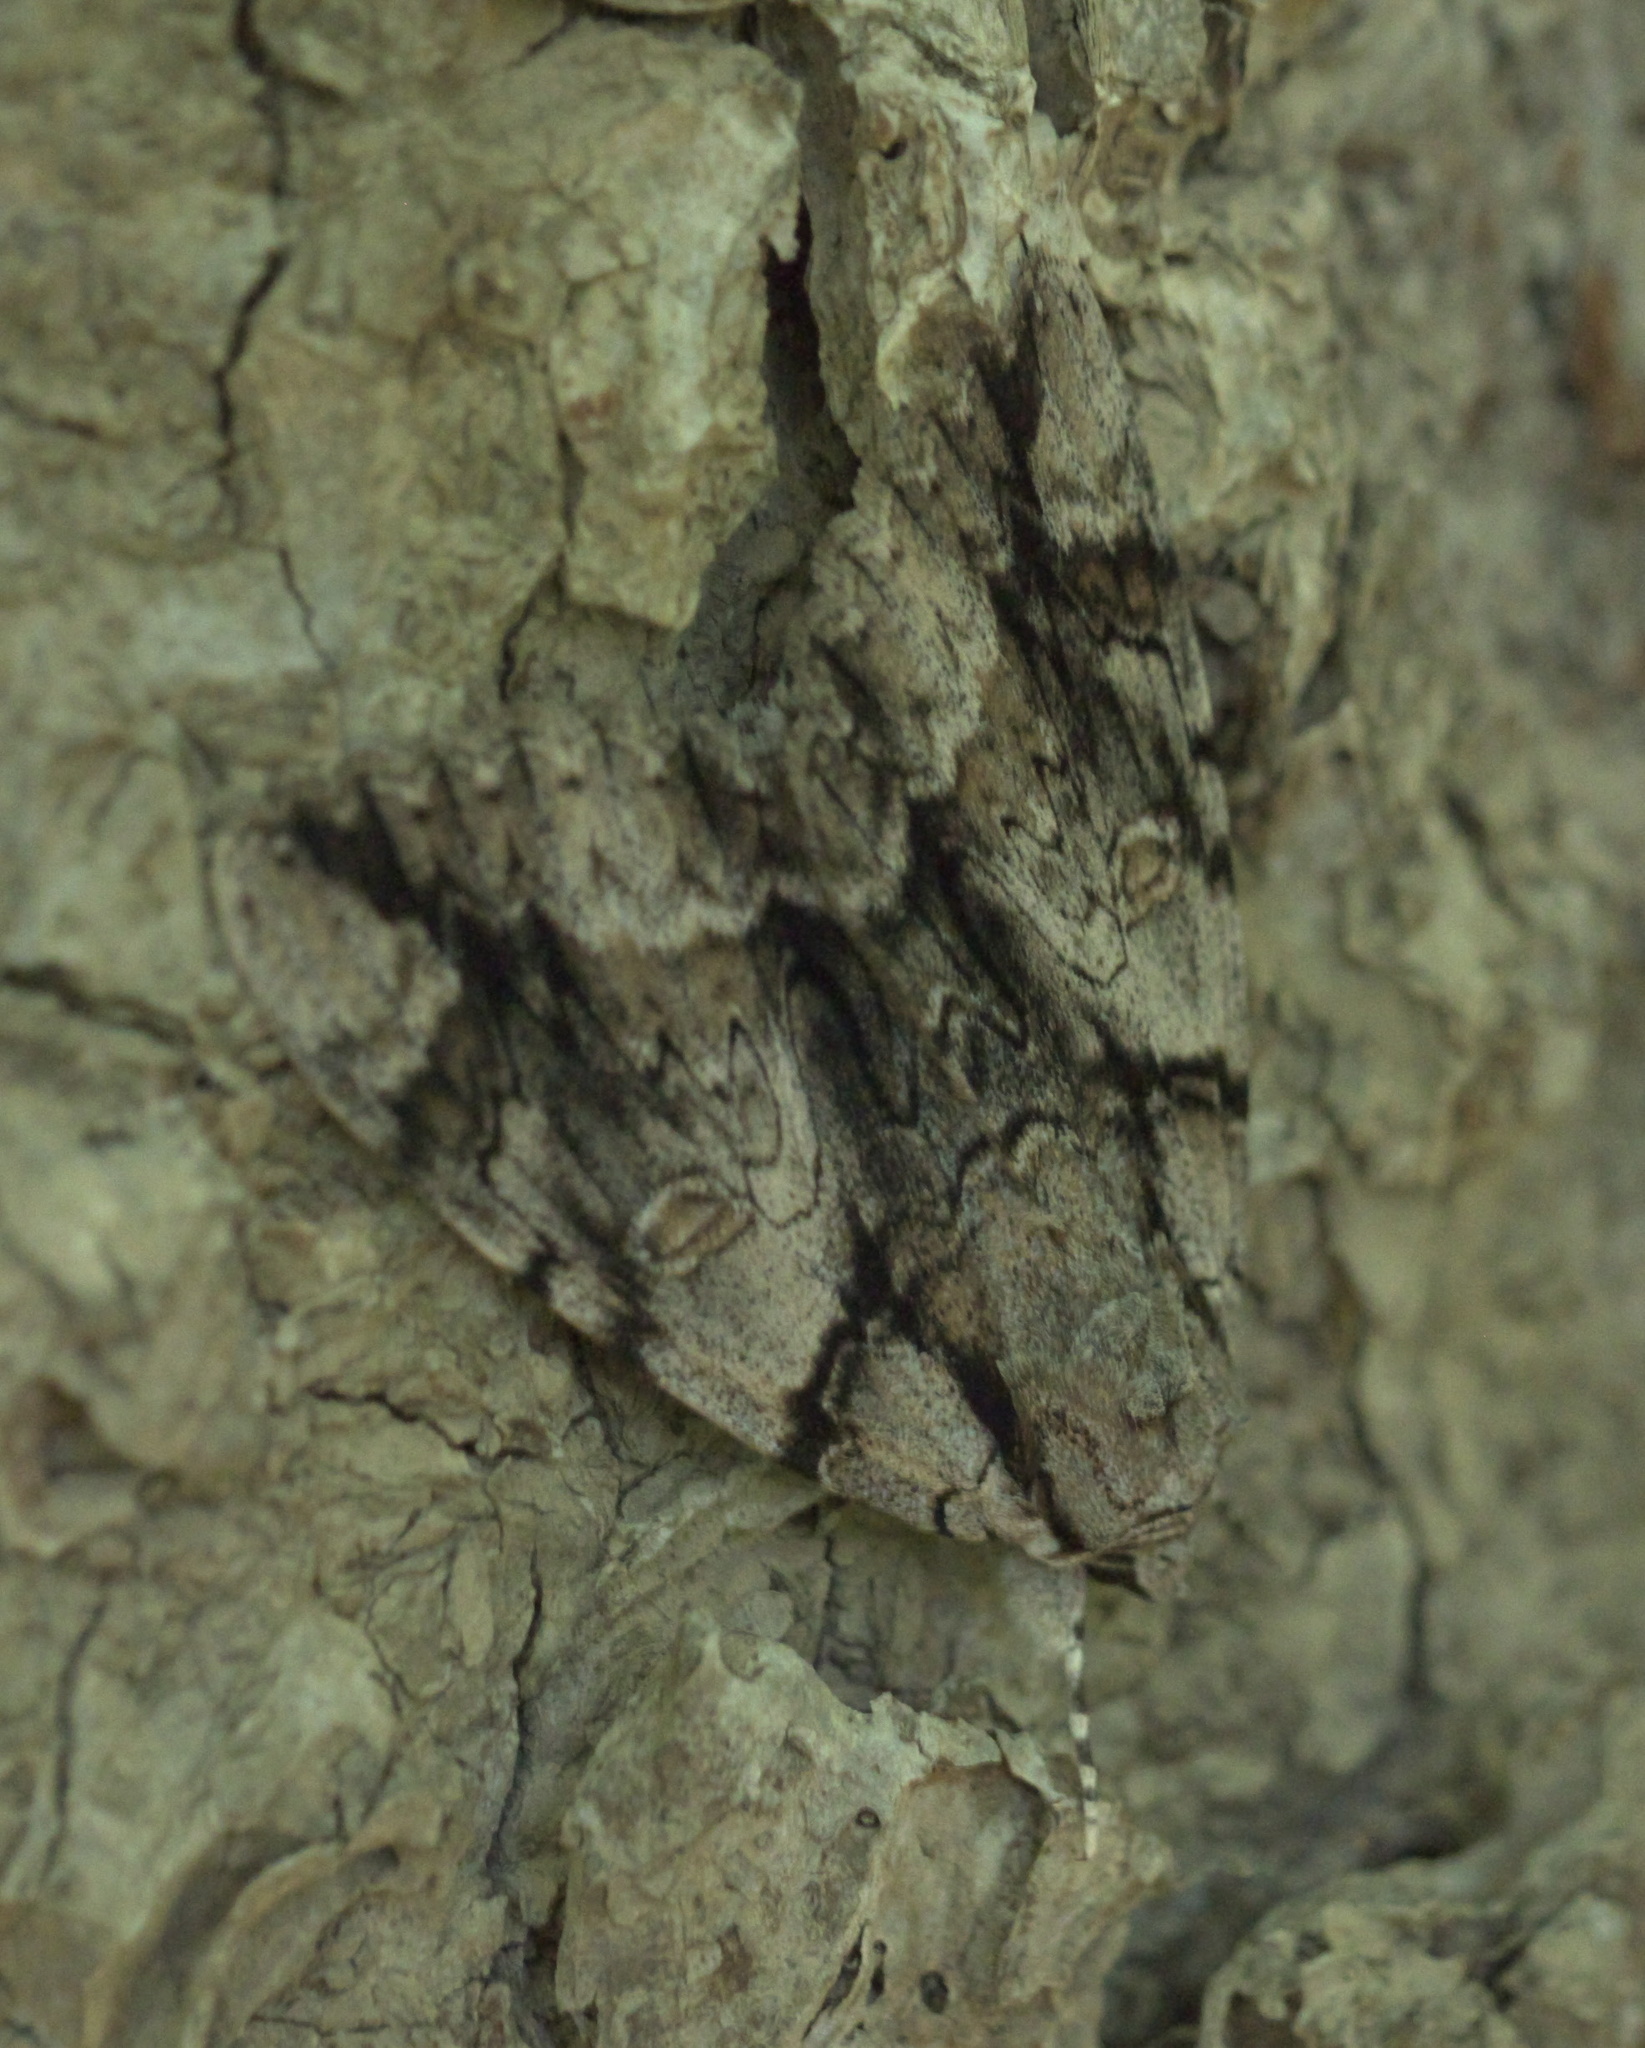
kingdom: Animalia
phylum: Arthropoda
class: Insecta
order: Lepidoptera
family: Erebidae
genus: Catocala
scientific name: Catocala vidua
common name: The widow
